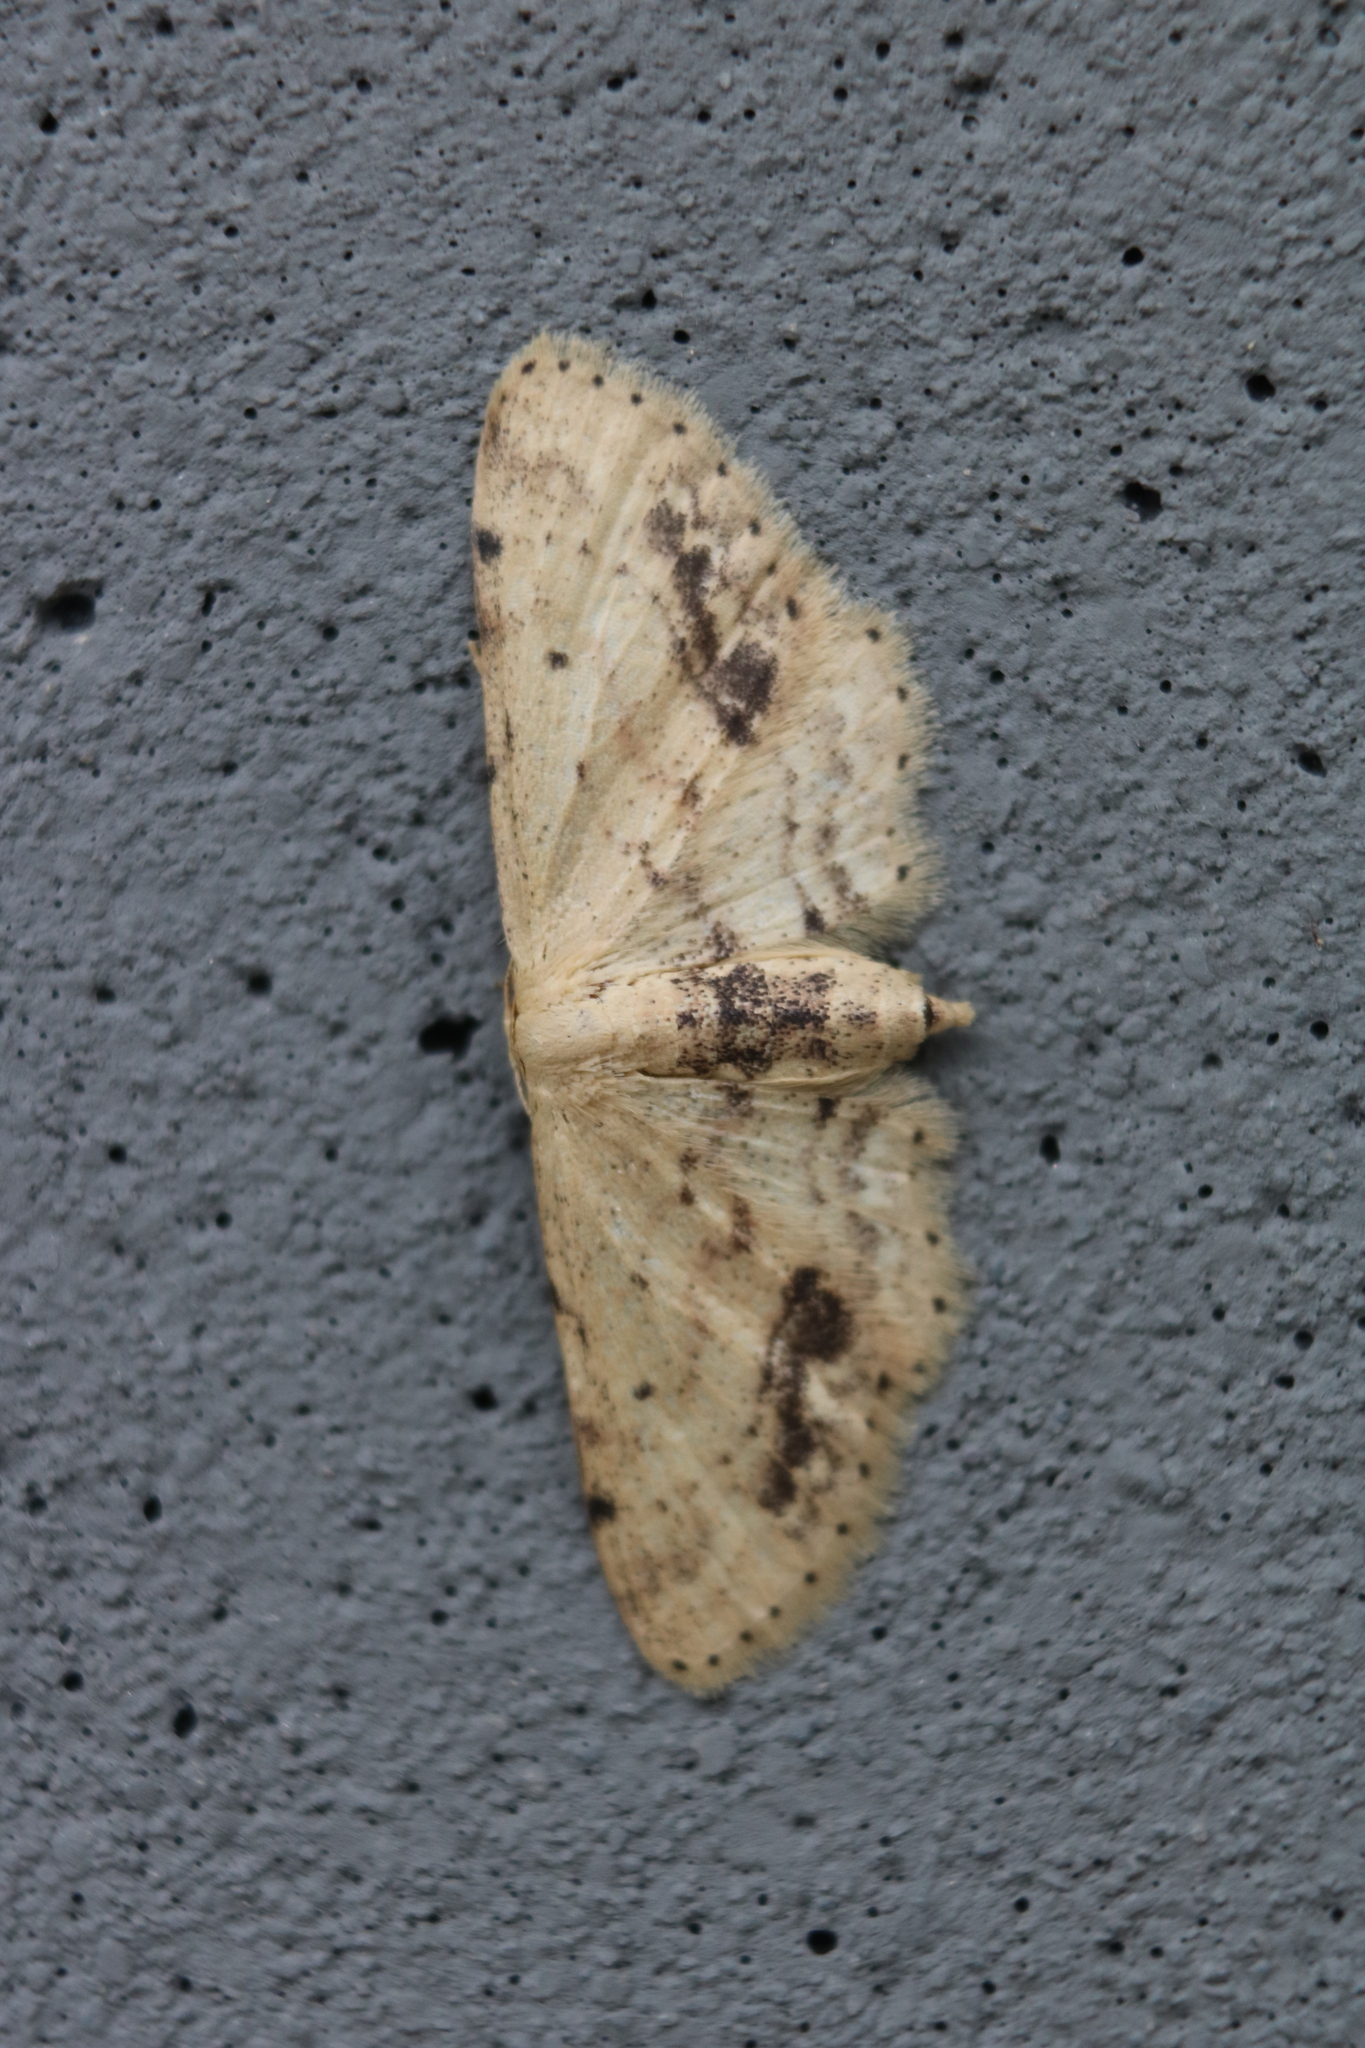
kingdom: Animalia
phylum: Arthropoda
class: Insecta
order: Lepidoptera
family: Geometridae
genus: Idaea
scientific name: Idaea dimidiata
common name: Single-dotted wave
